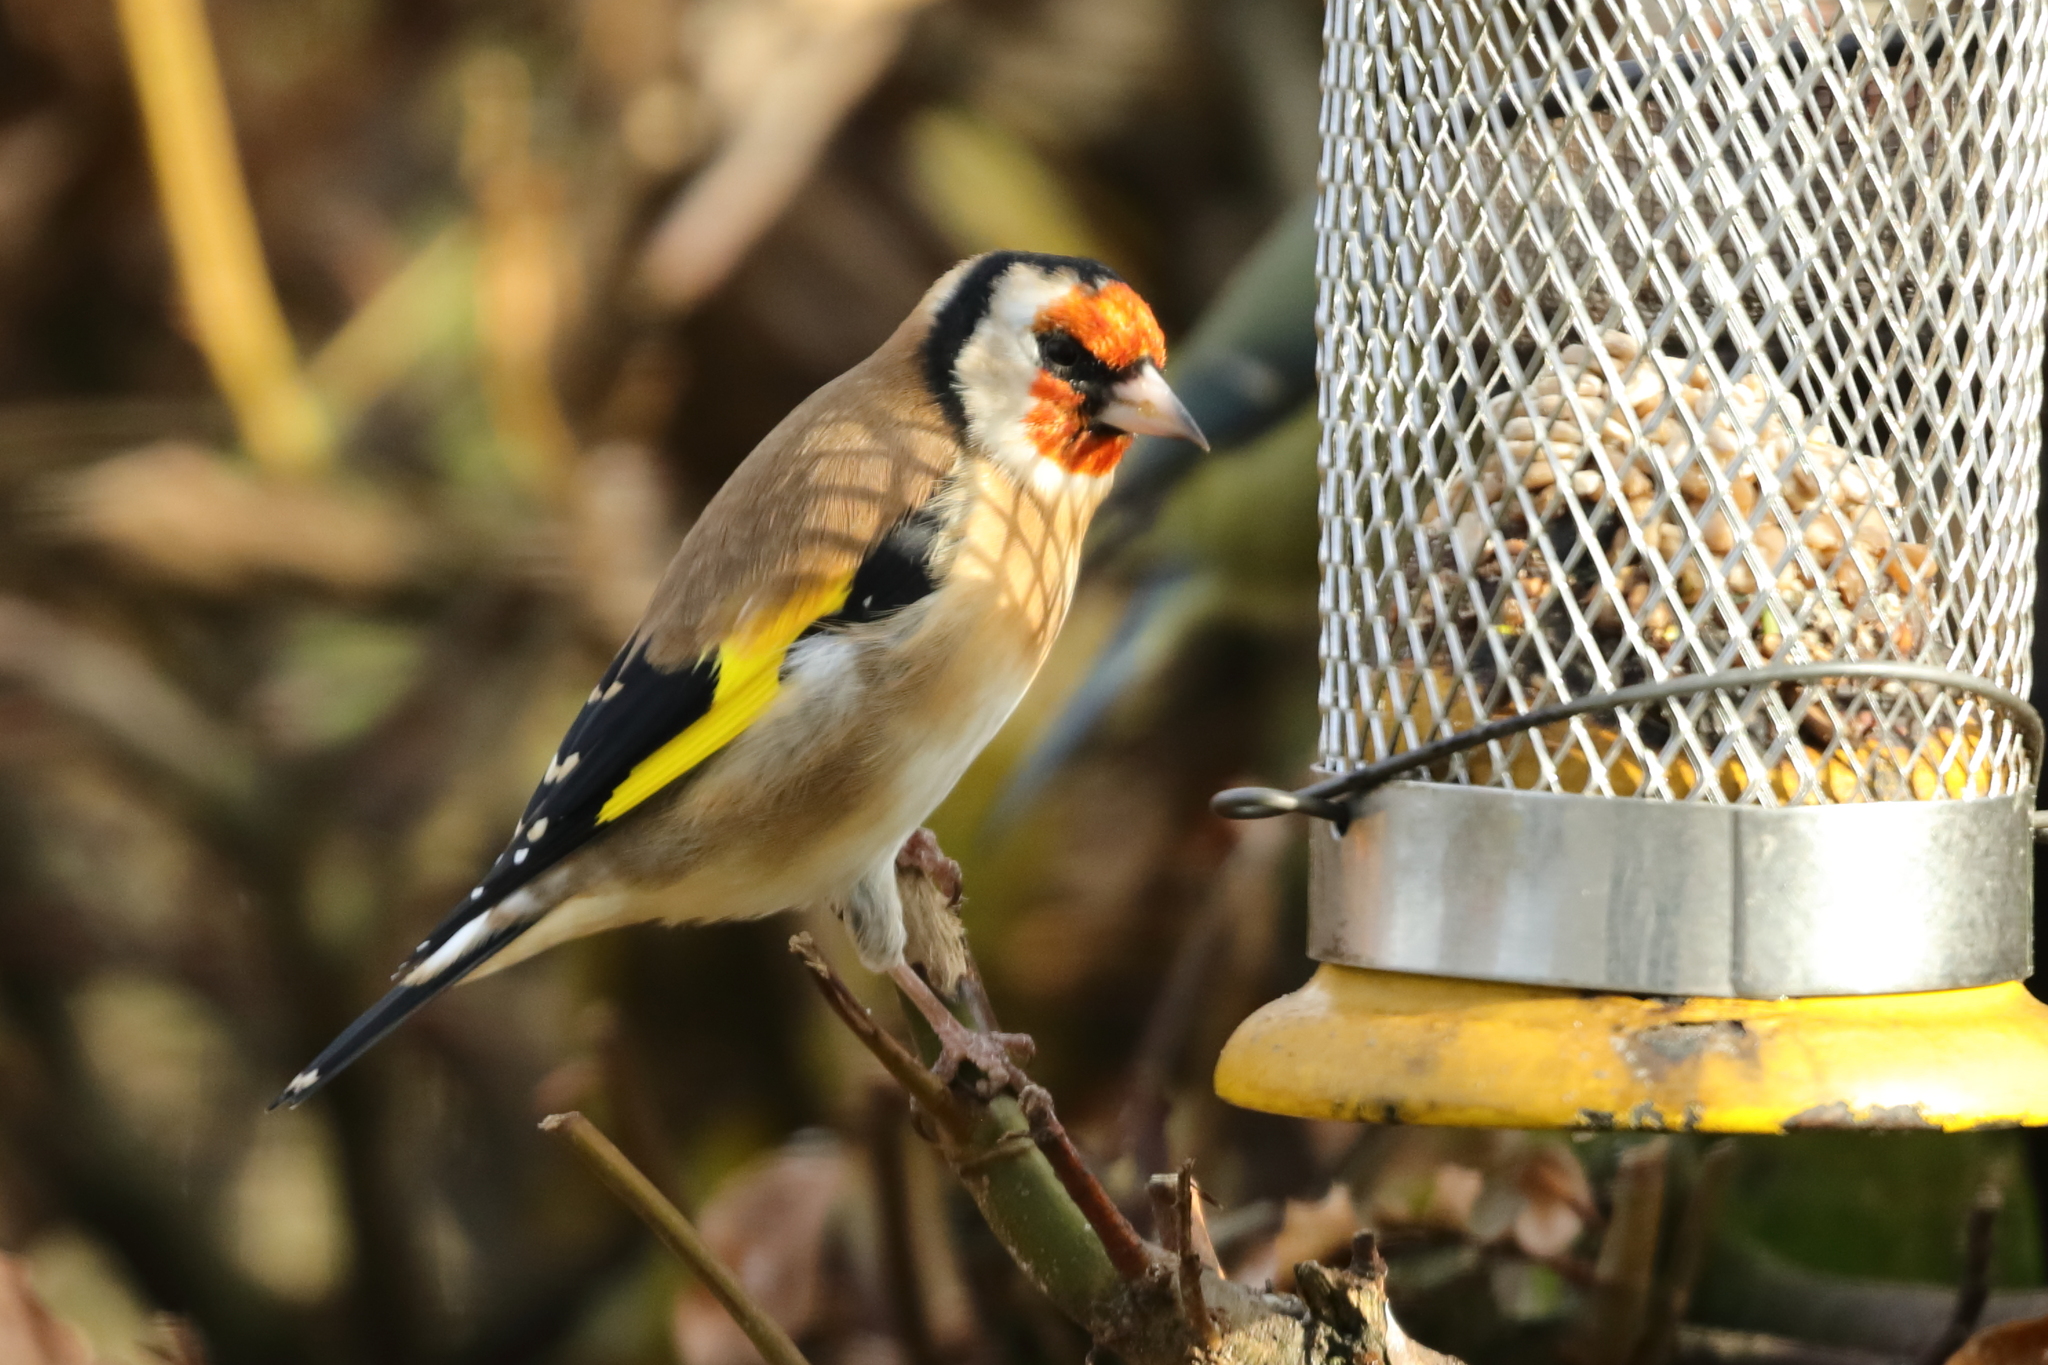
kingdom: Animalia
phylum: Chordata
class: Aves
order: Passeriformes
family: Fringillidae
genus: Carduelis
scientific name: Carduelis carduelis
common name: European goldfinch
